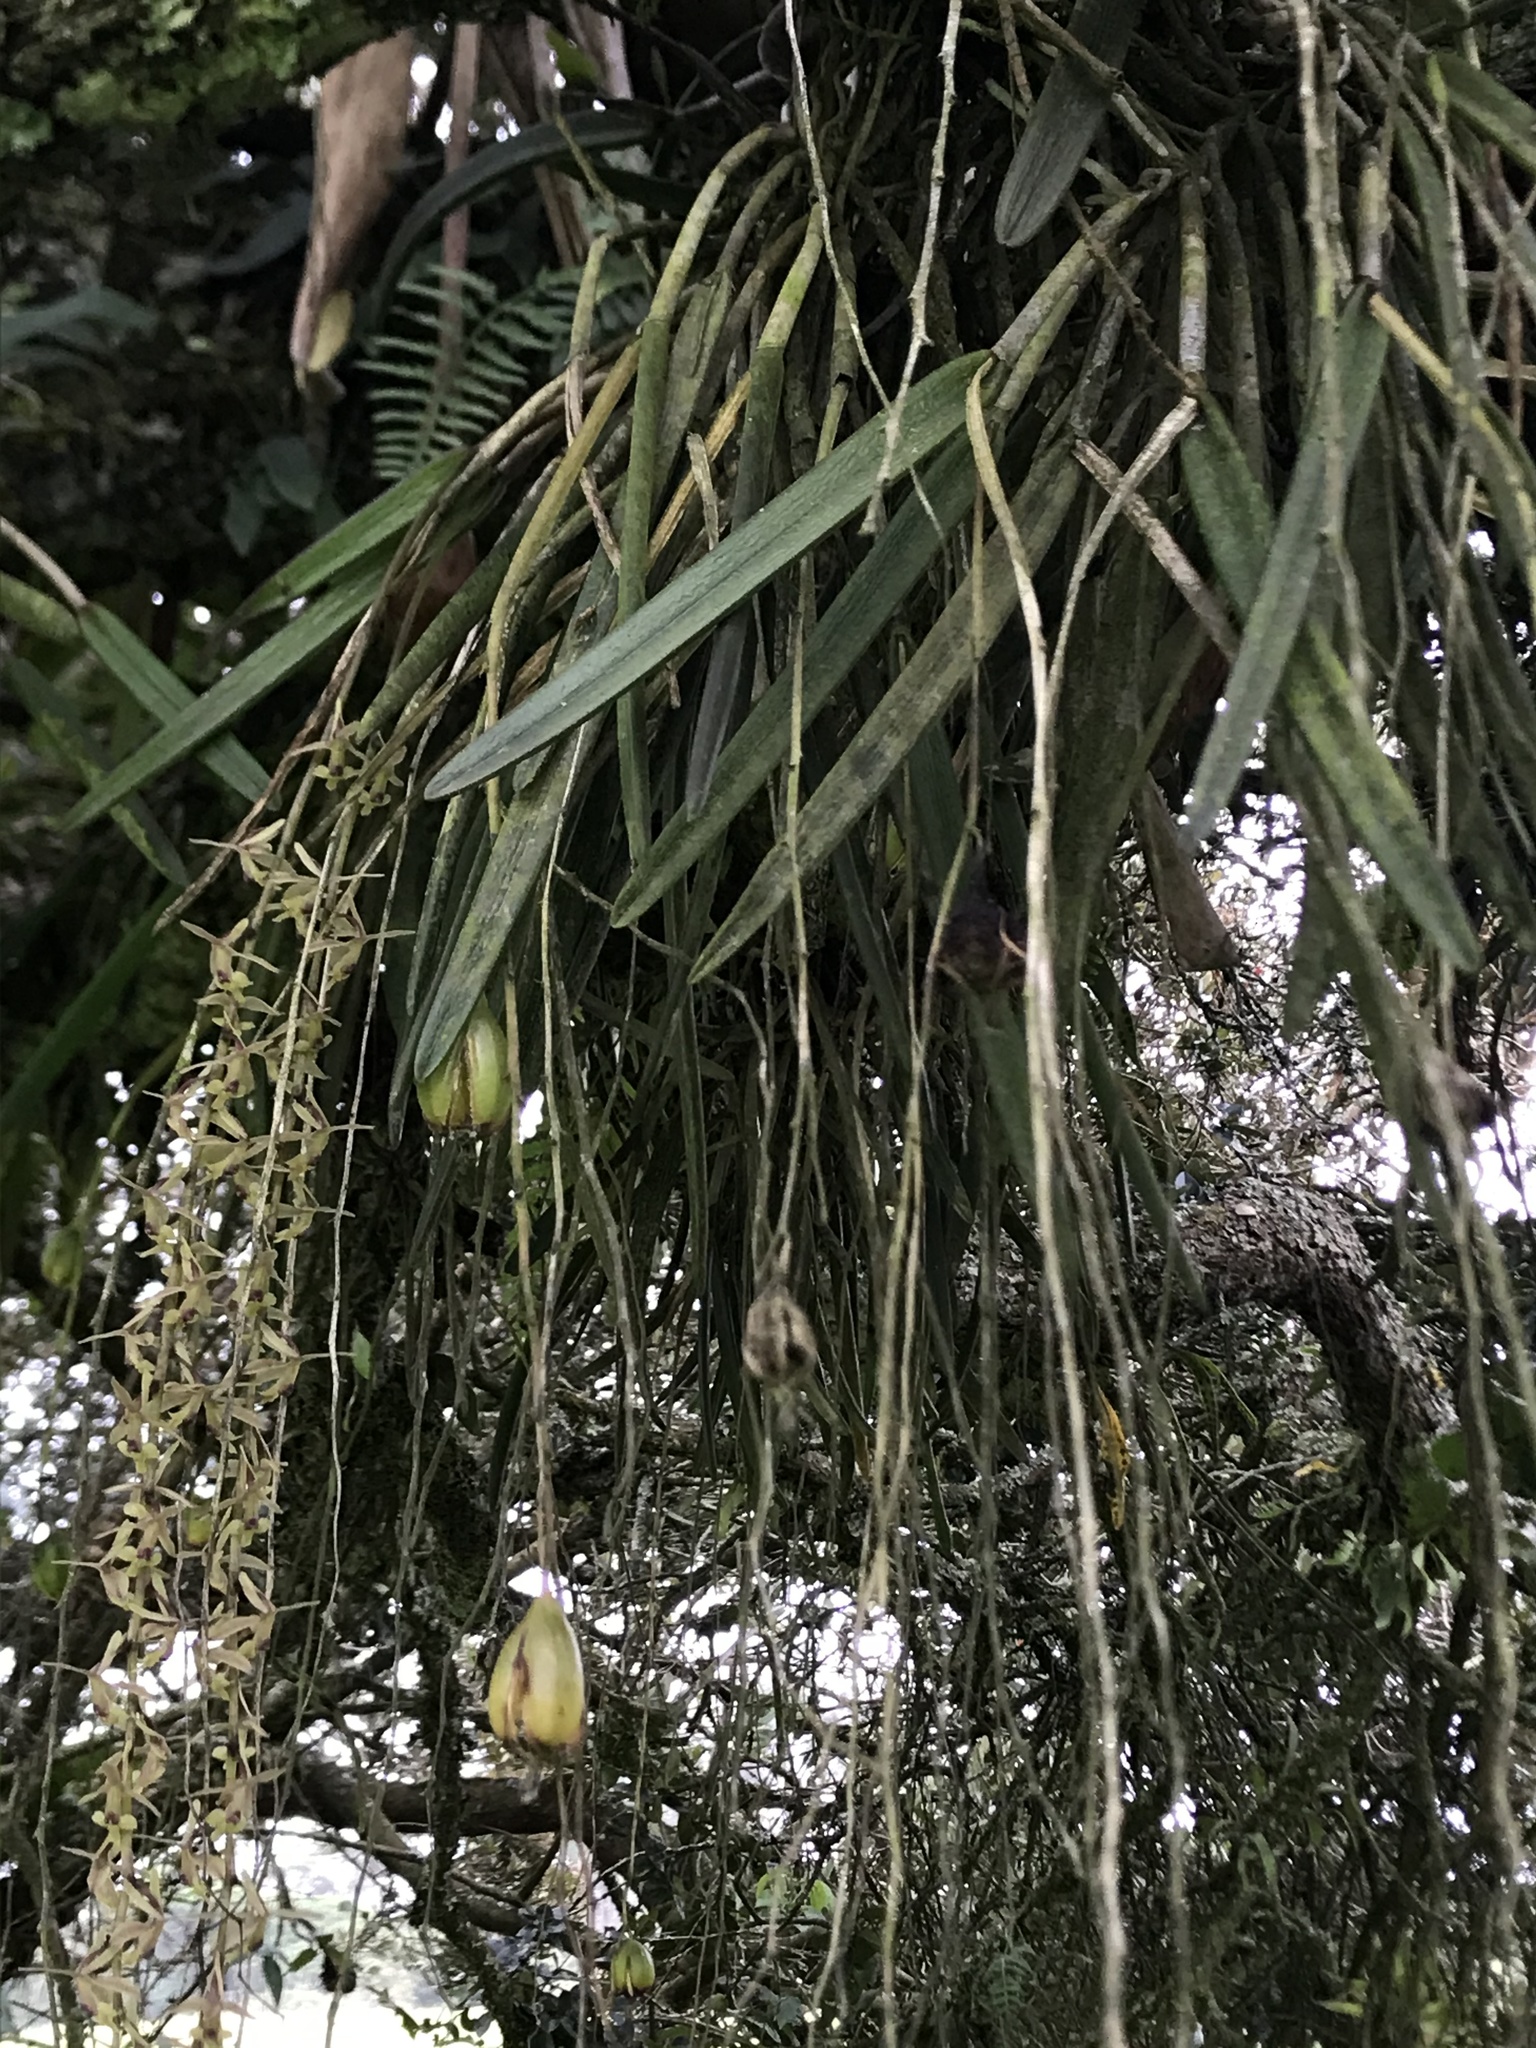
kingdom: Plantae
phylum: Tracheophyta
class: Liliopsida
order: Asparagales
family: Orchidaceae
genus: Epidendrum
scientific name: Epidendrum moritzii
